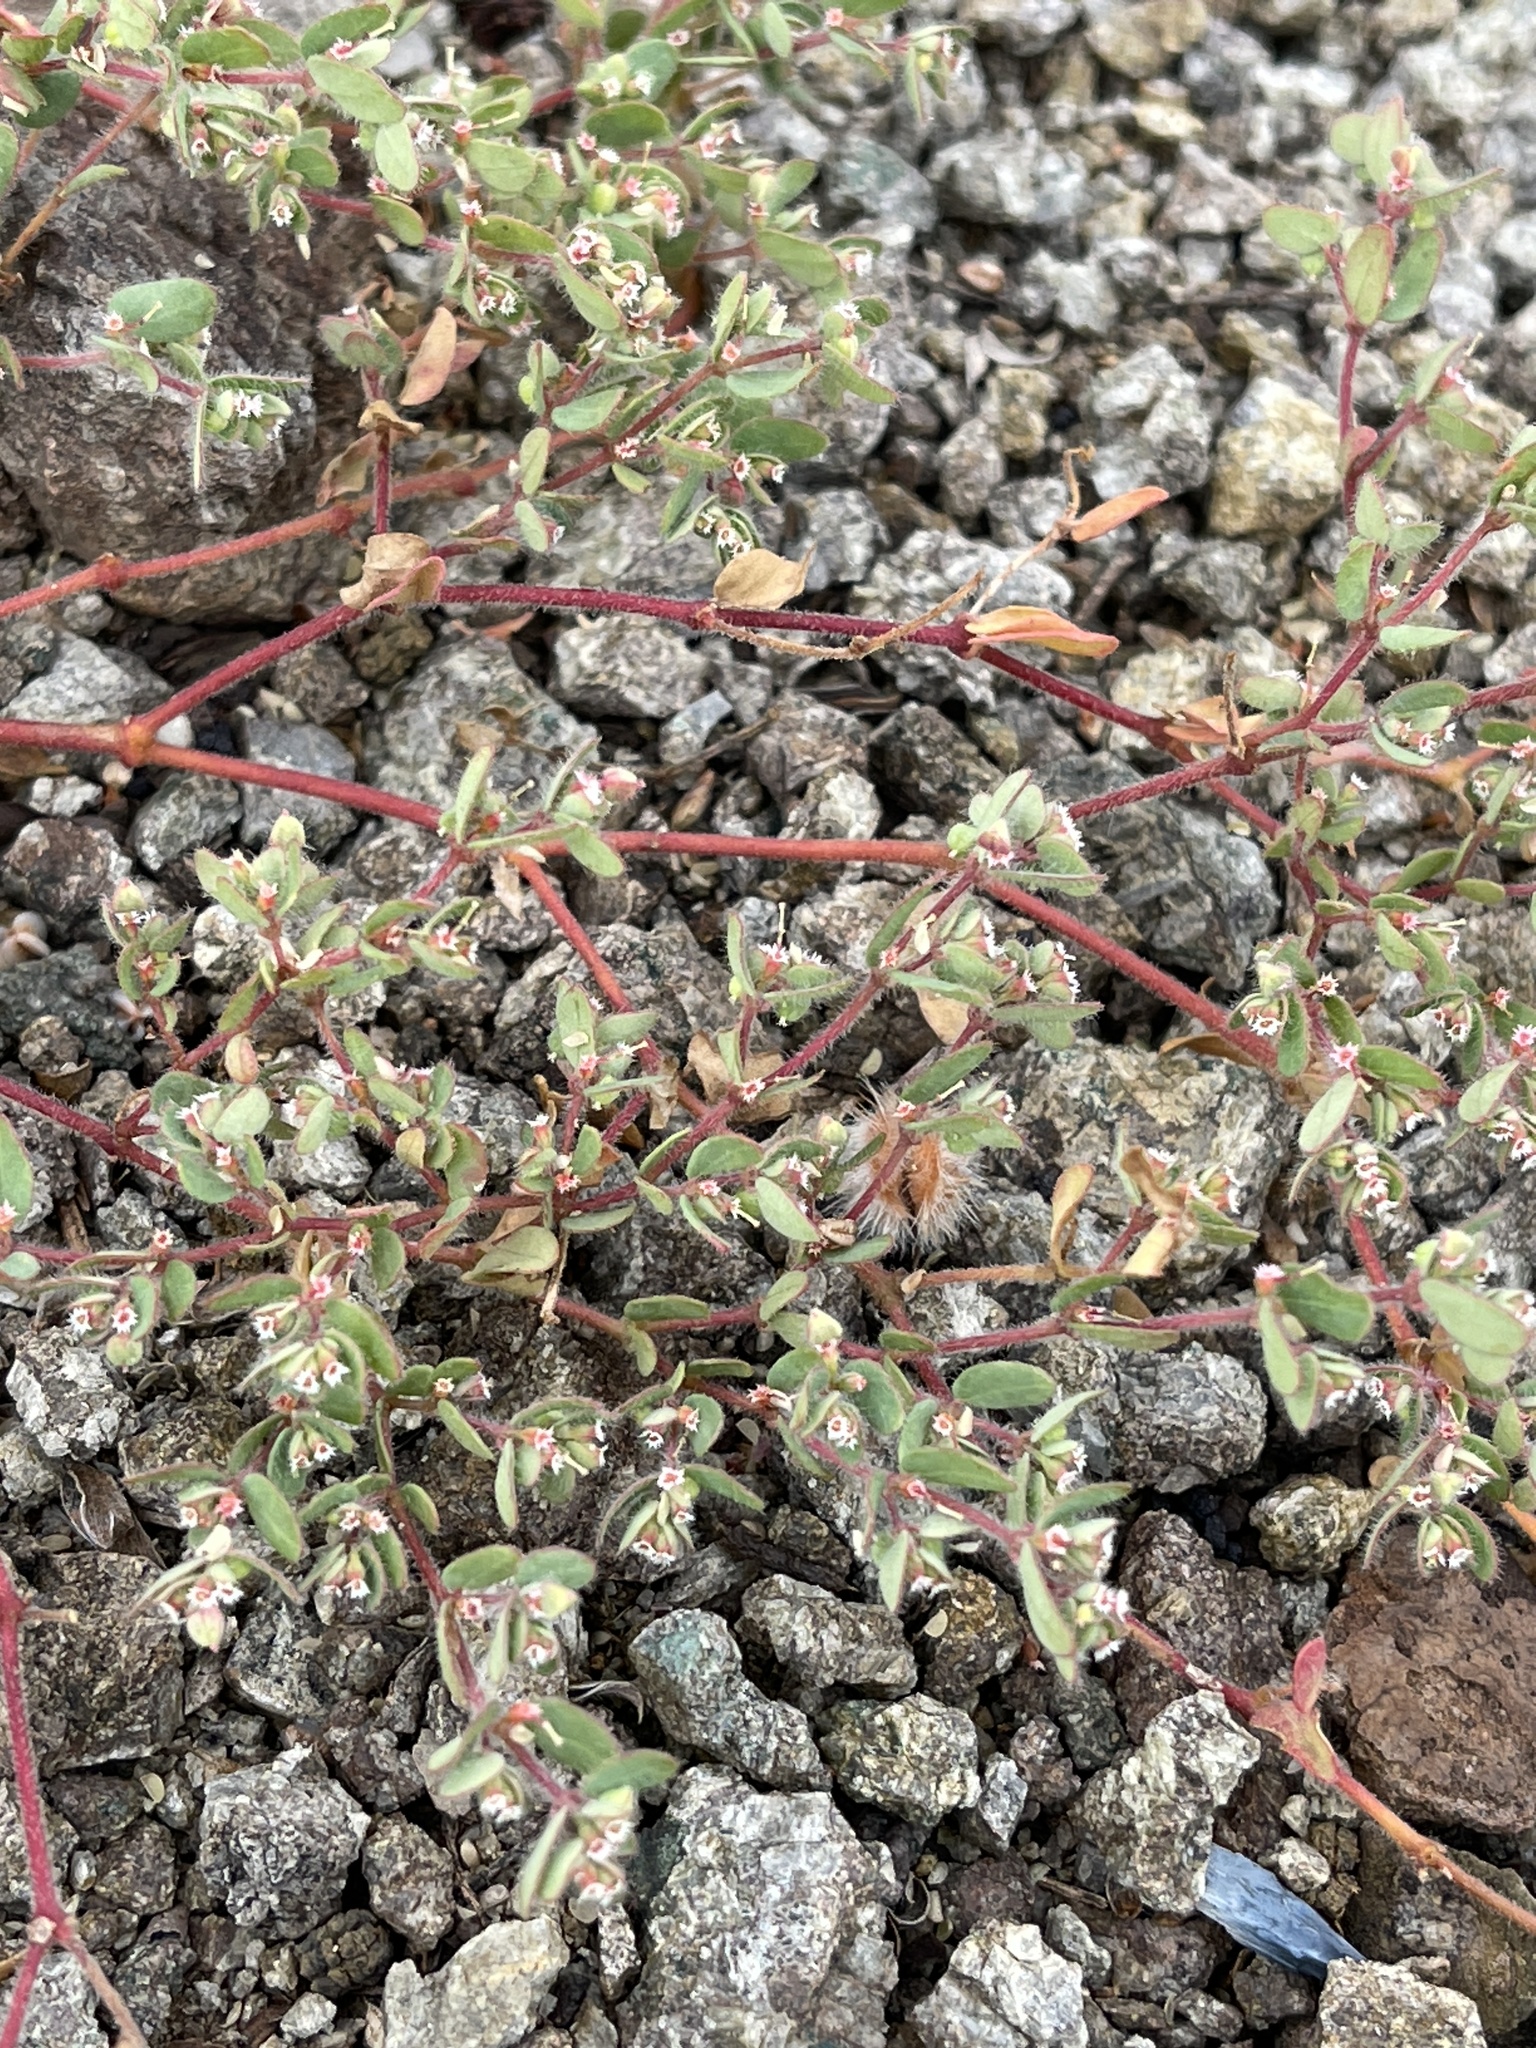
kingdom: Plantae
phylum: Tracheophyta
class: Magnoliopsida
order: Malpighiales
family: Euphorbiaceae
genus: Euphorbia
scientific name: Euphorbia setiloba
